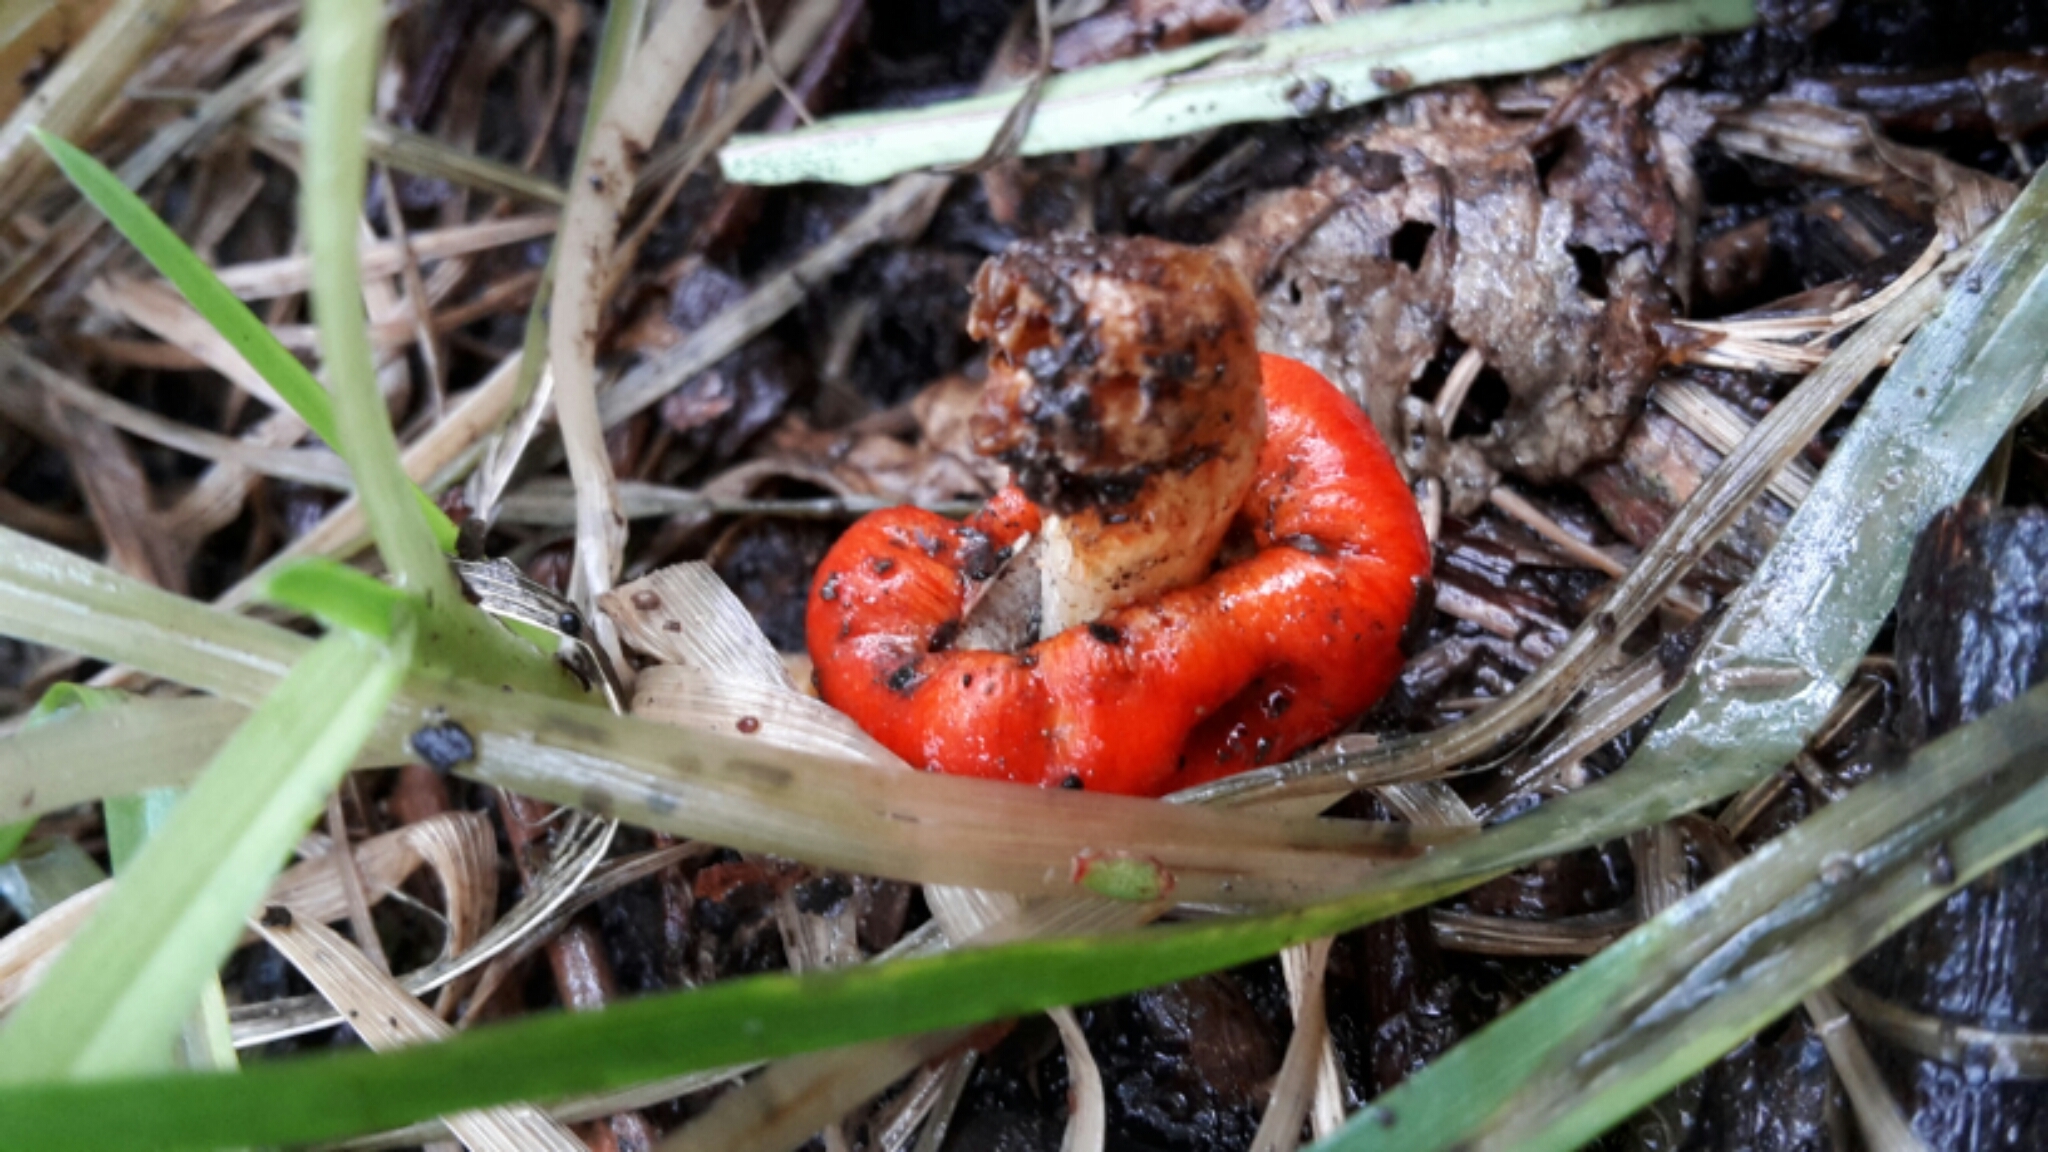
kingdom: Fungi
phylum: Basidiomycota
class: Agaricomycetes
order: Agaricales
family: Strophariaceae
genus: Leratiomyces
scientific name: Leratiomyces erythrocephalus
